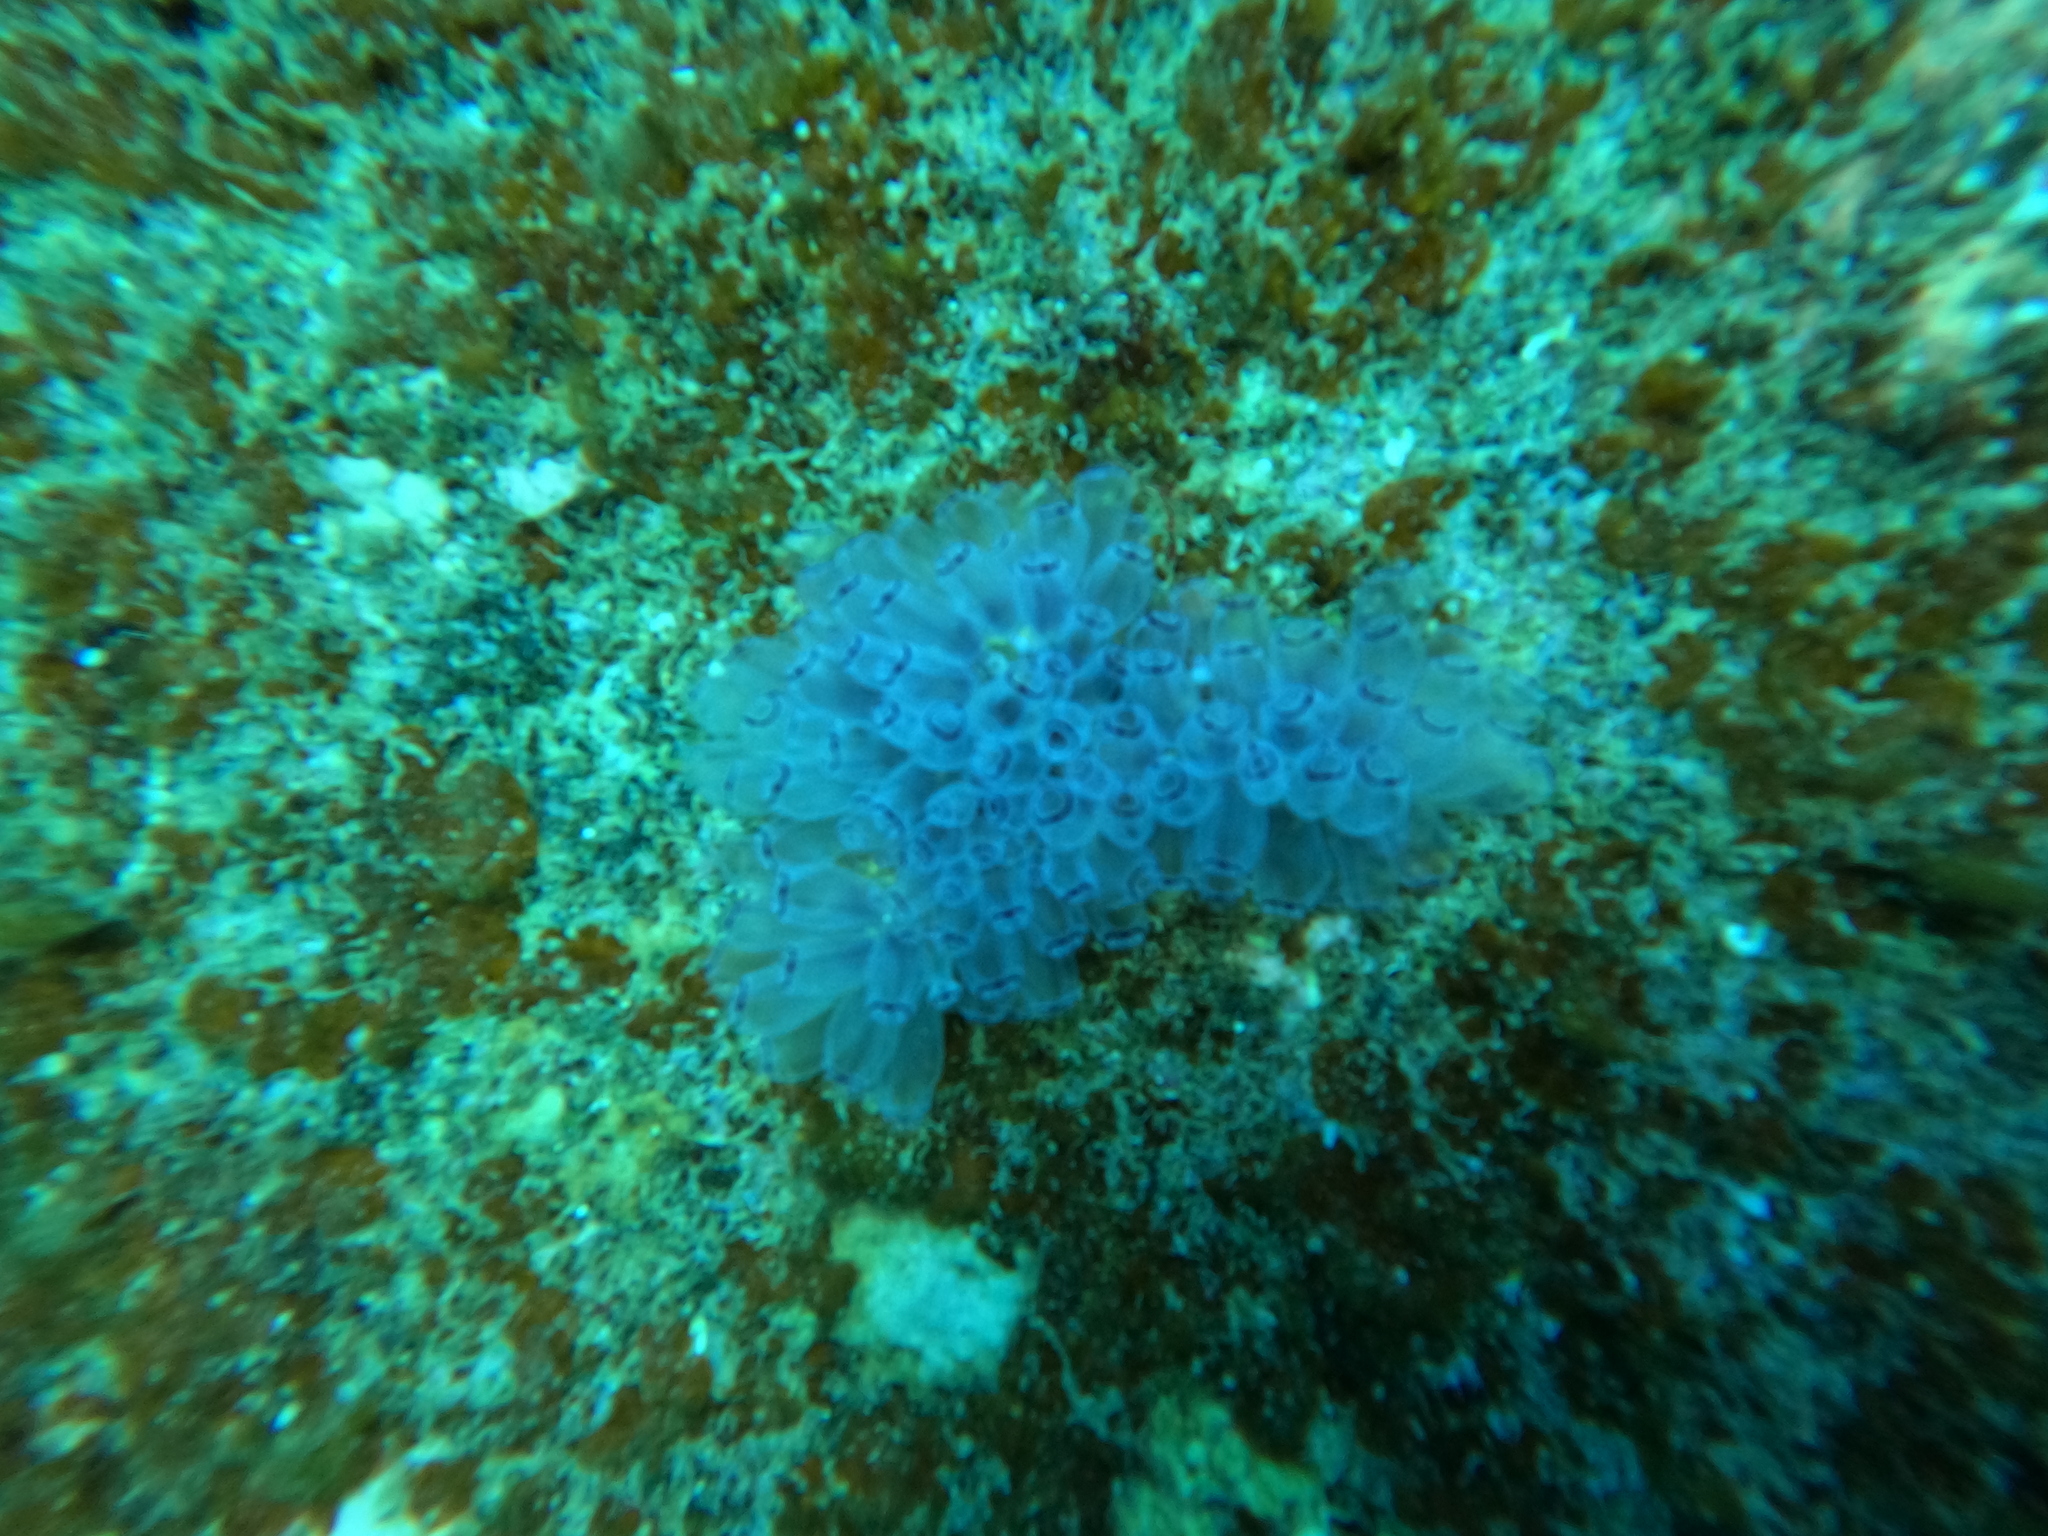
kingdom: Animalia
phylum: Chordata
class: Ascidiacea
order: Aplousobranchia
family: Clavelinidae
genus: Clavelina
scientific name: Clavelina picta
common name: Painted tunicate
